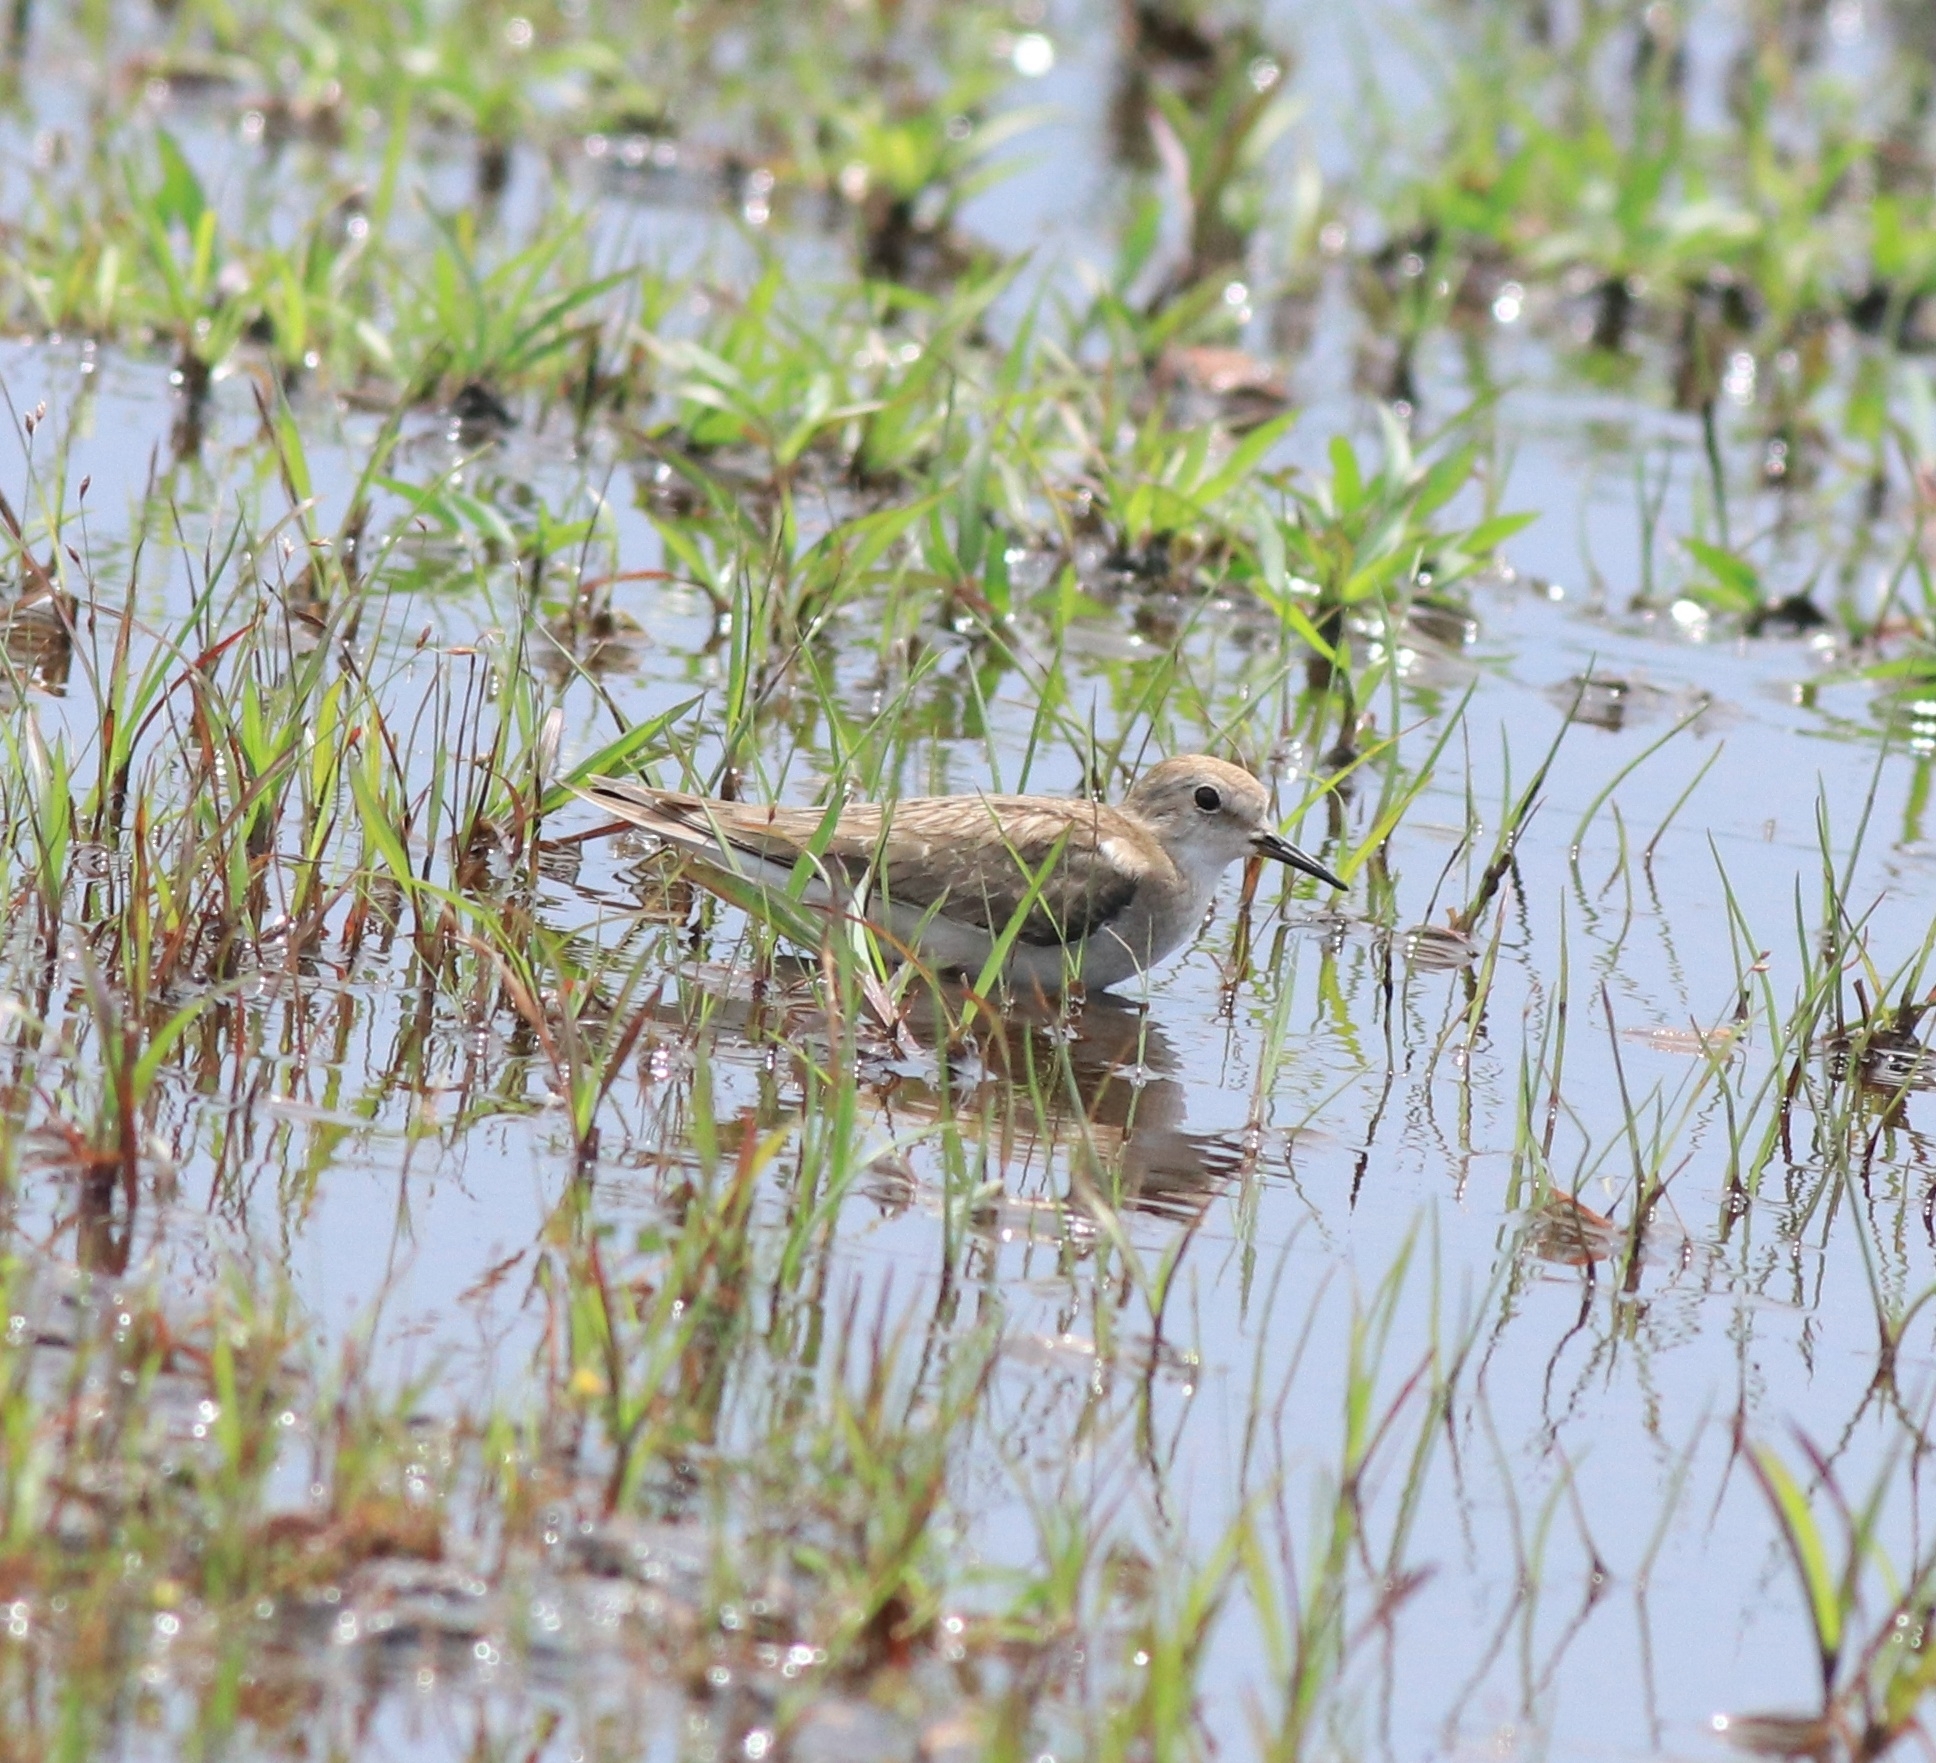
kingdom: Animalia
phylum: Chordata
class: Aves
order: Charadriiformes
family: Scolopacidae
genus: Calidris
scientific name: Calidris temminckii
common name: Temminck's stint
